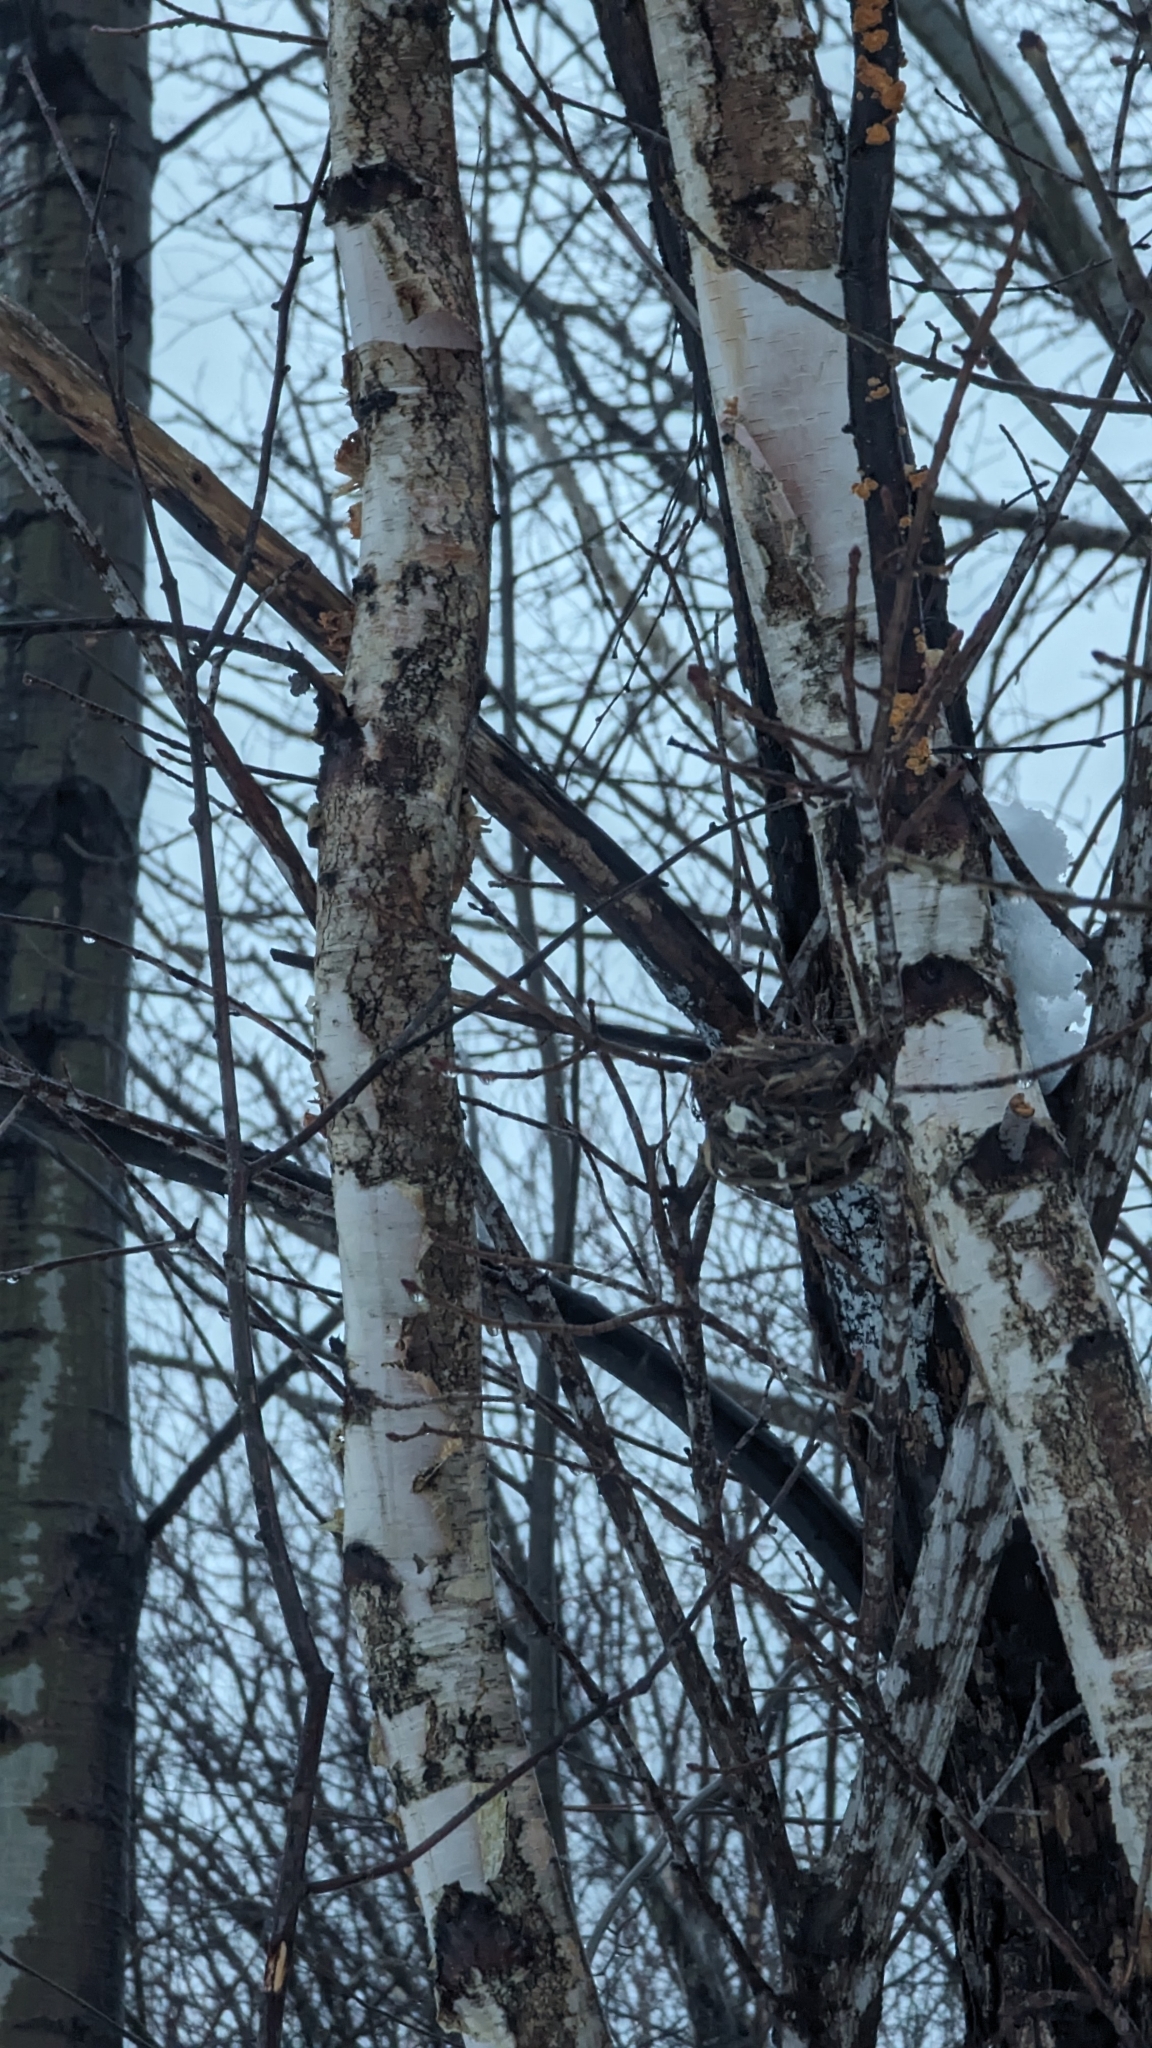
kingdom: Animalia
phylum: Chordata
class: Aves
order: Passeriformes
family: Vireonidae
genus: Vireo
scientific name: Vireo olivaceus
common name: Red-eyed vireo
